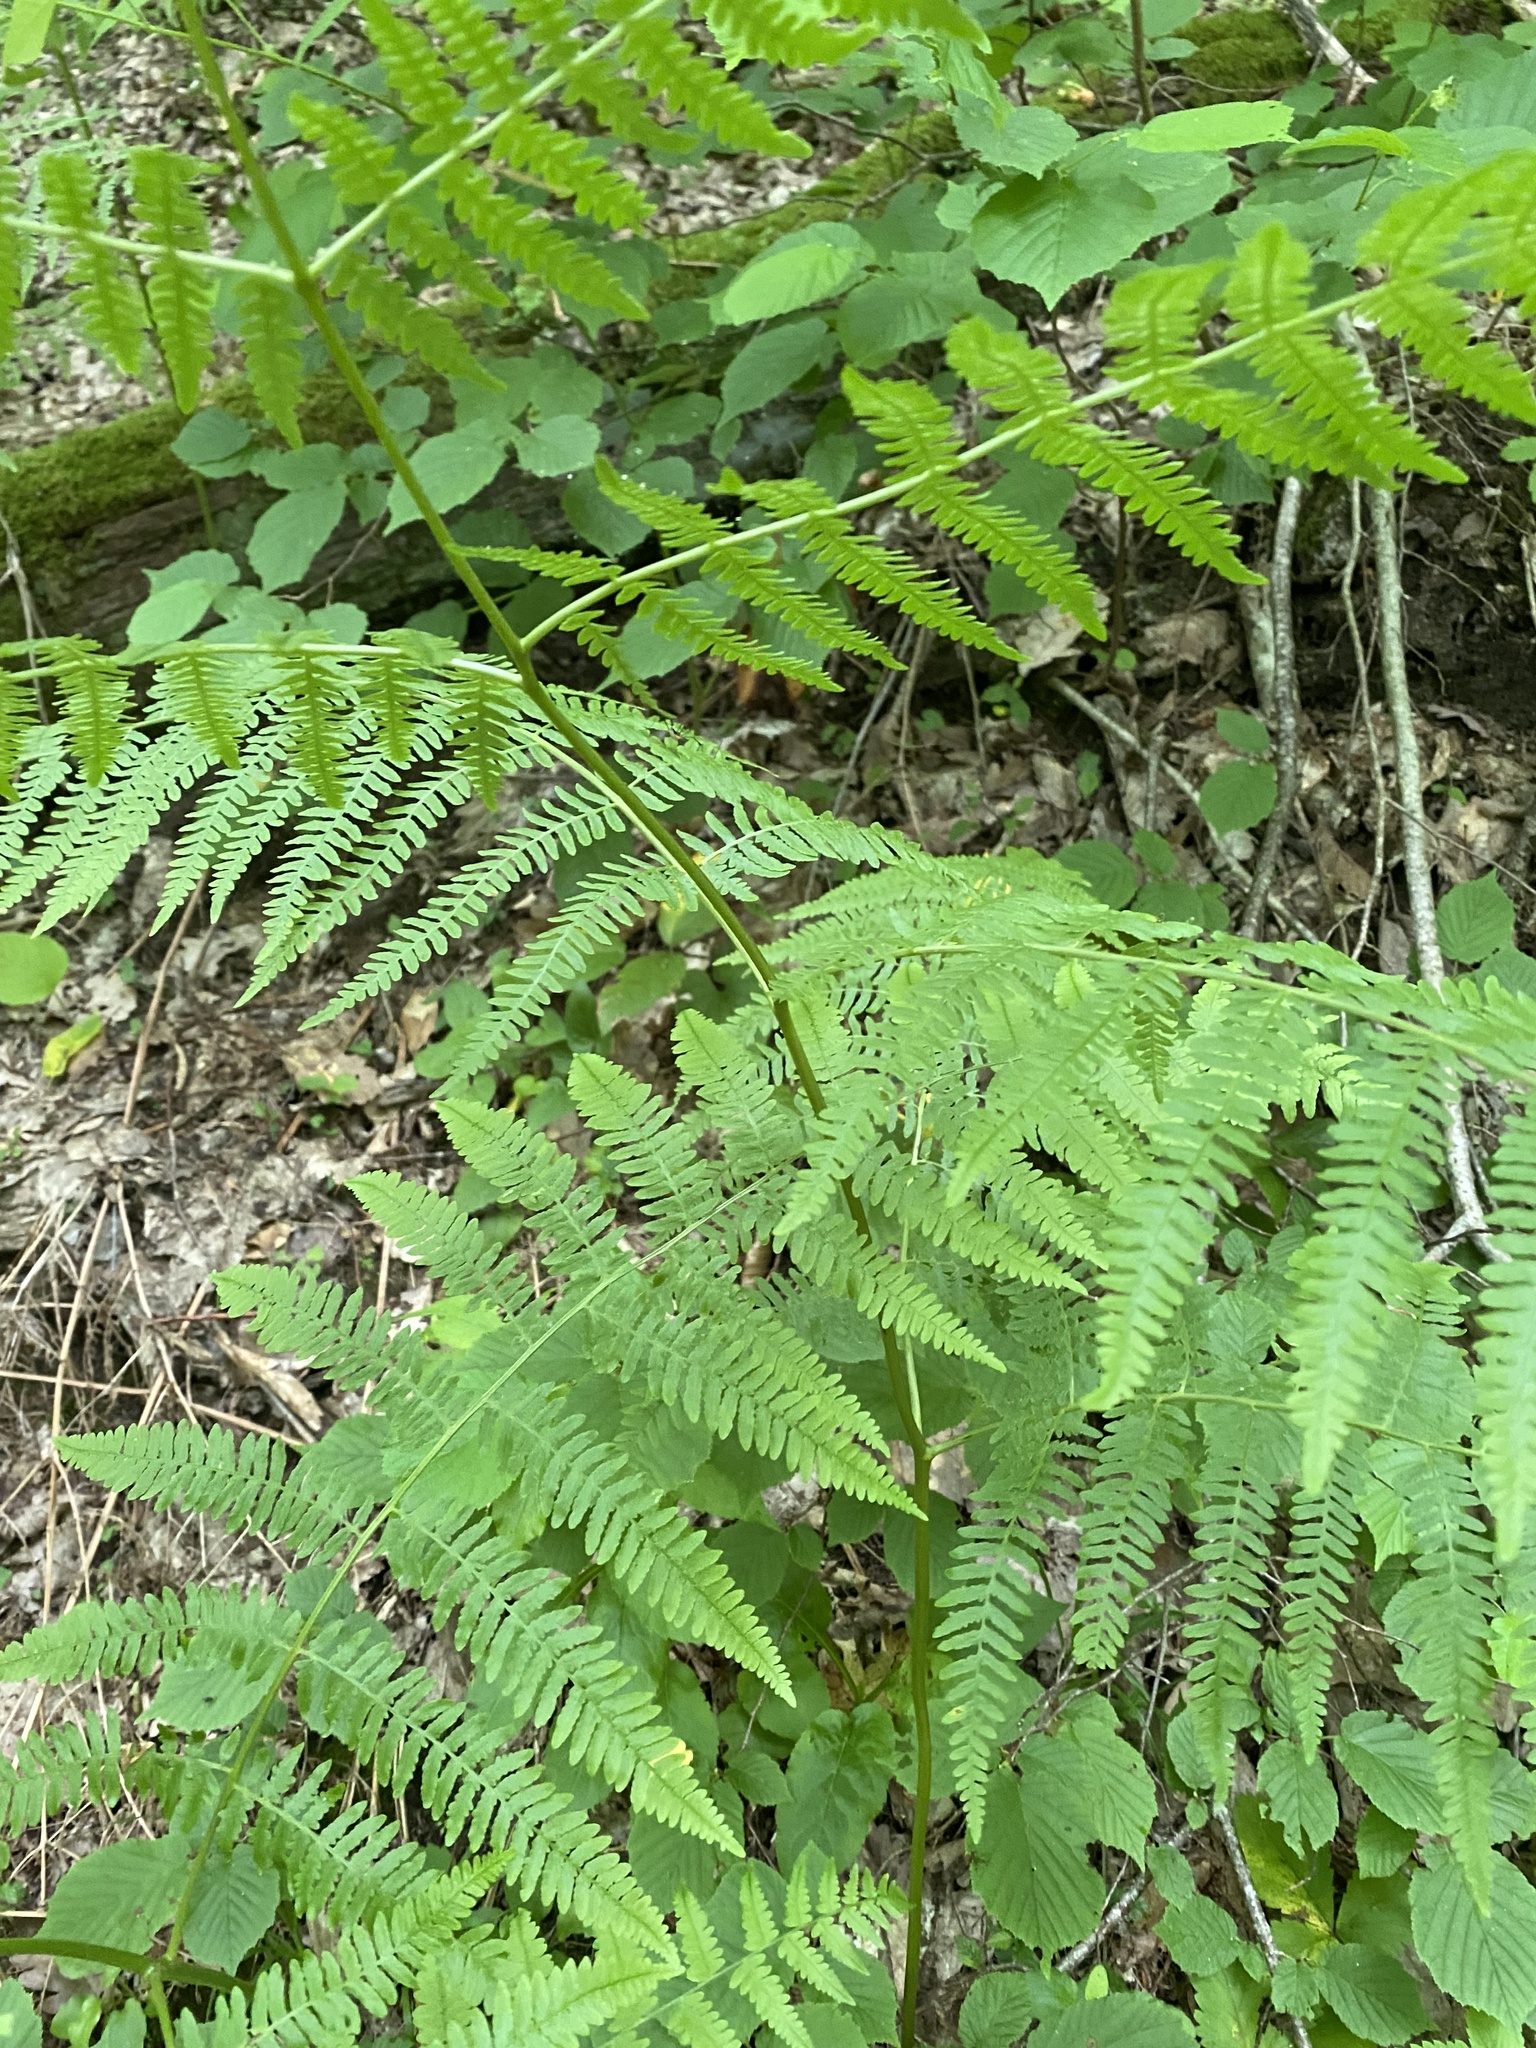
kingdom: Plantae
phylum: Tracheophyta
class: Polypodiopsida
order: Polypodiales
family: Dennstaedtiaceae
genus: Pteridium
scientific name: Pteridium tauricum
